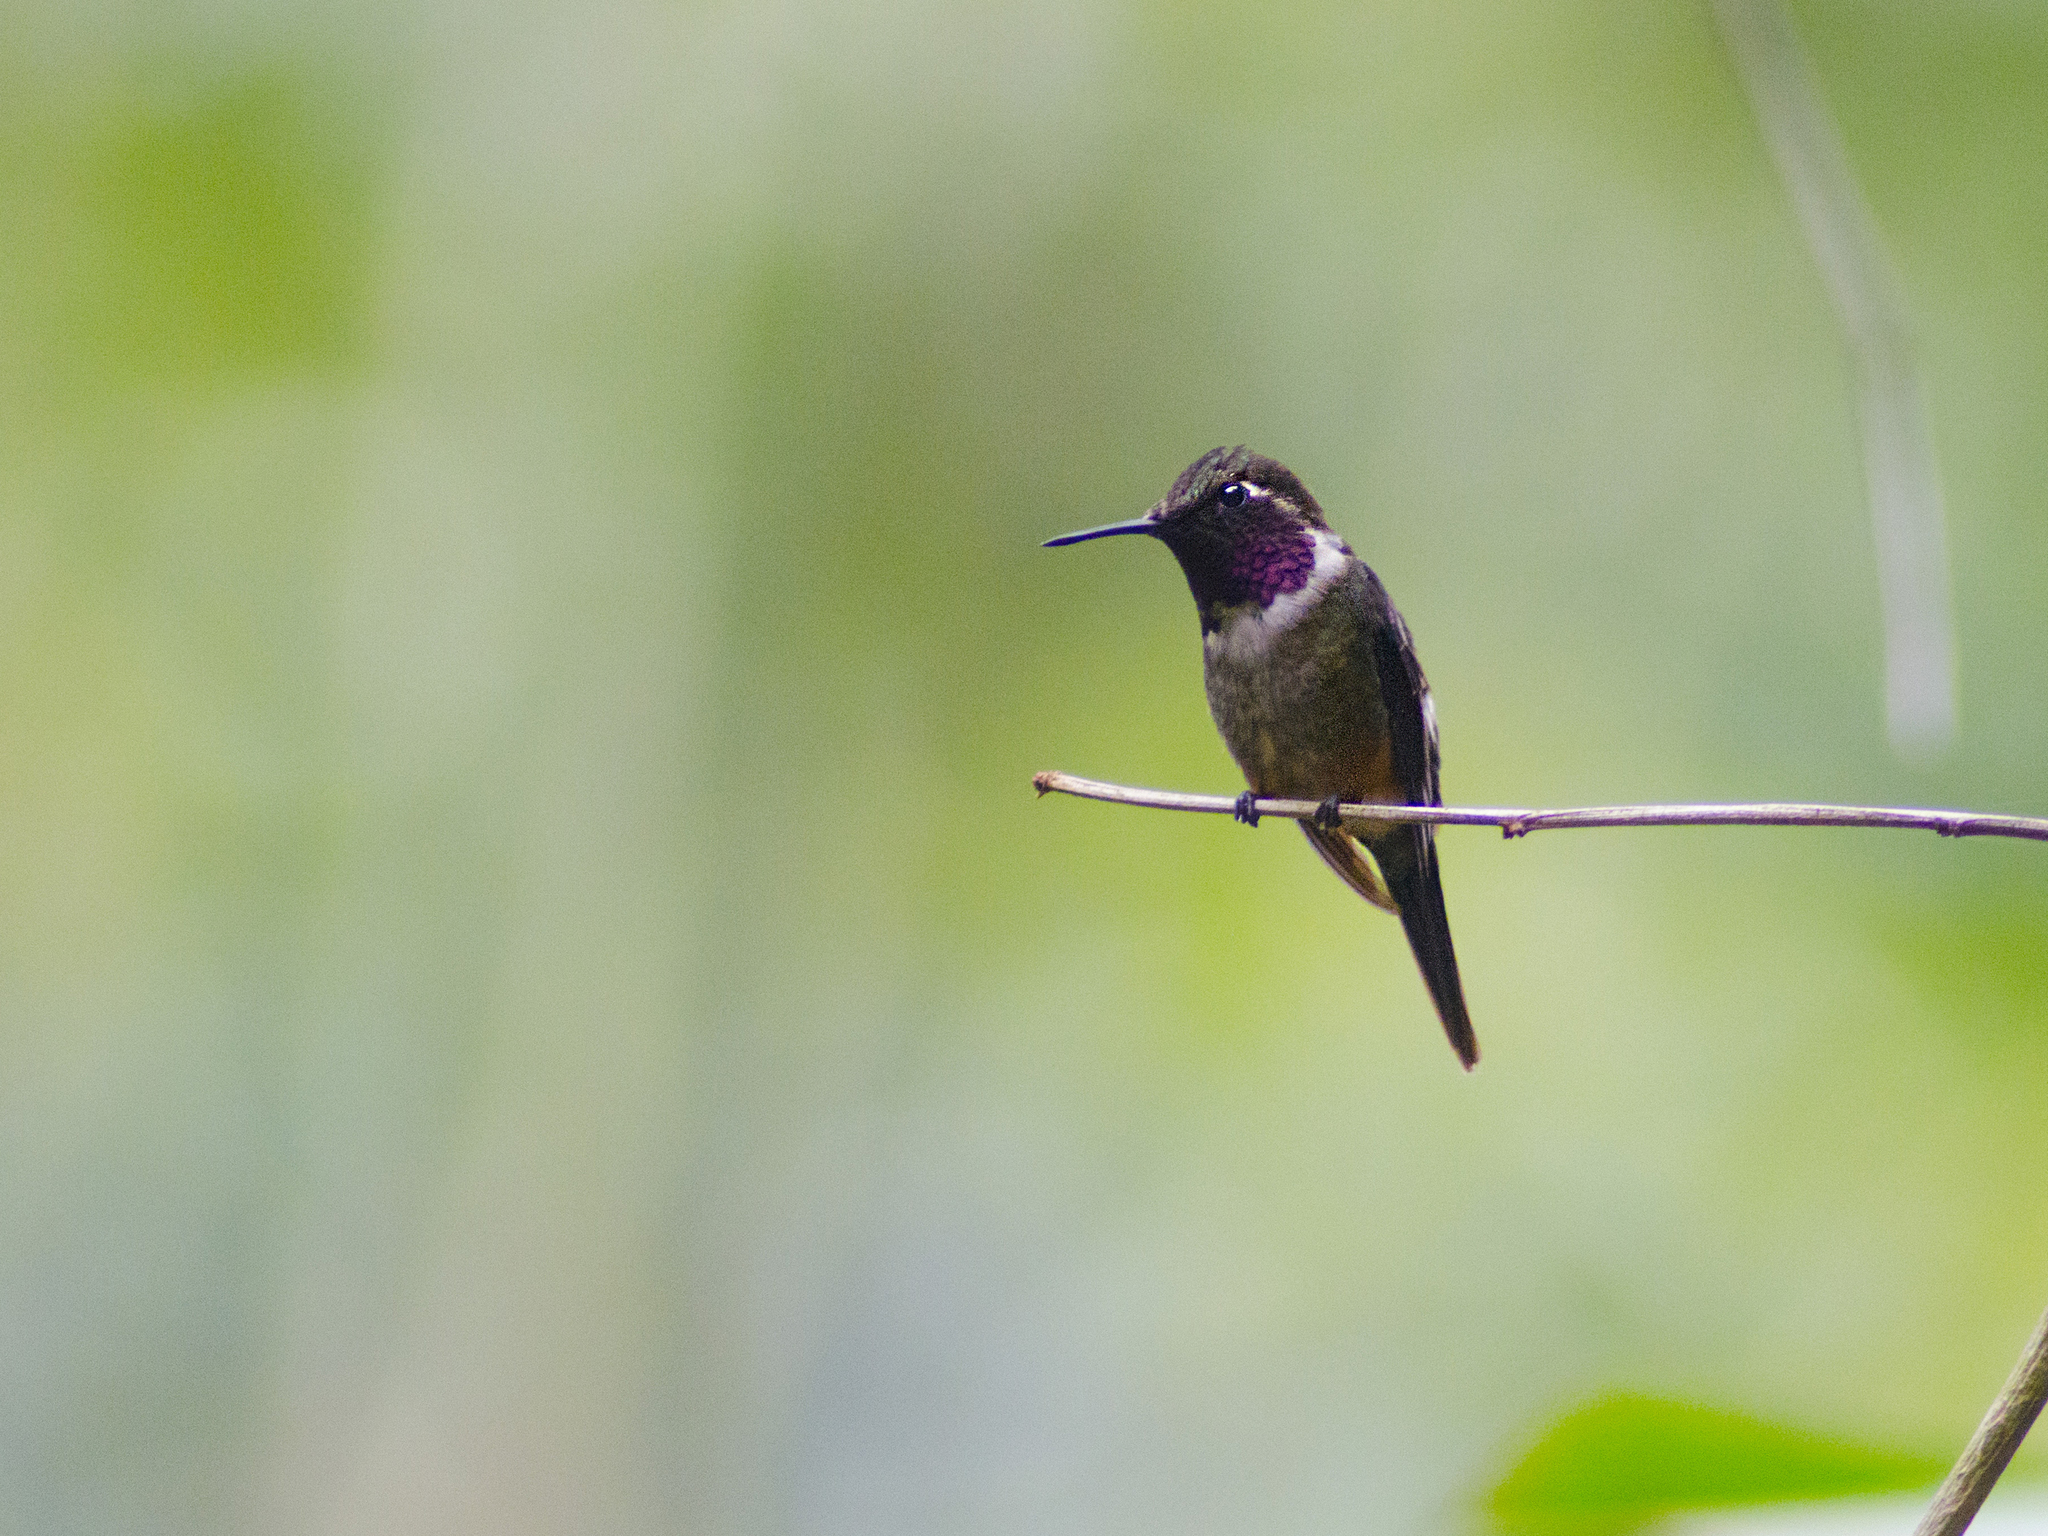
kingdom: Animalia
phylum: Chordata
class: Aves
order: Apodiformes
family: Trochilidae
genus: Calliphlox
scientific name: Calliphlox mitchellii
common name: Purple-throated woodstar
